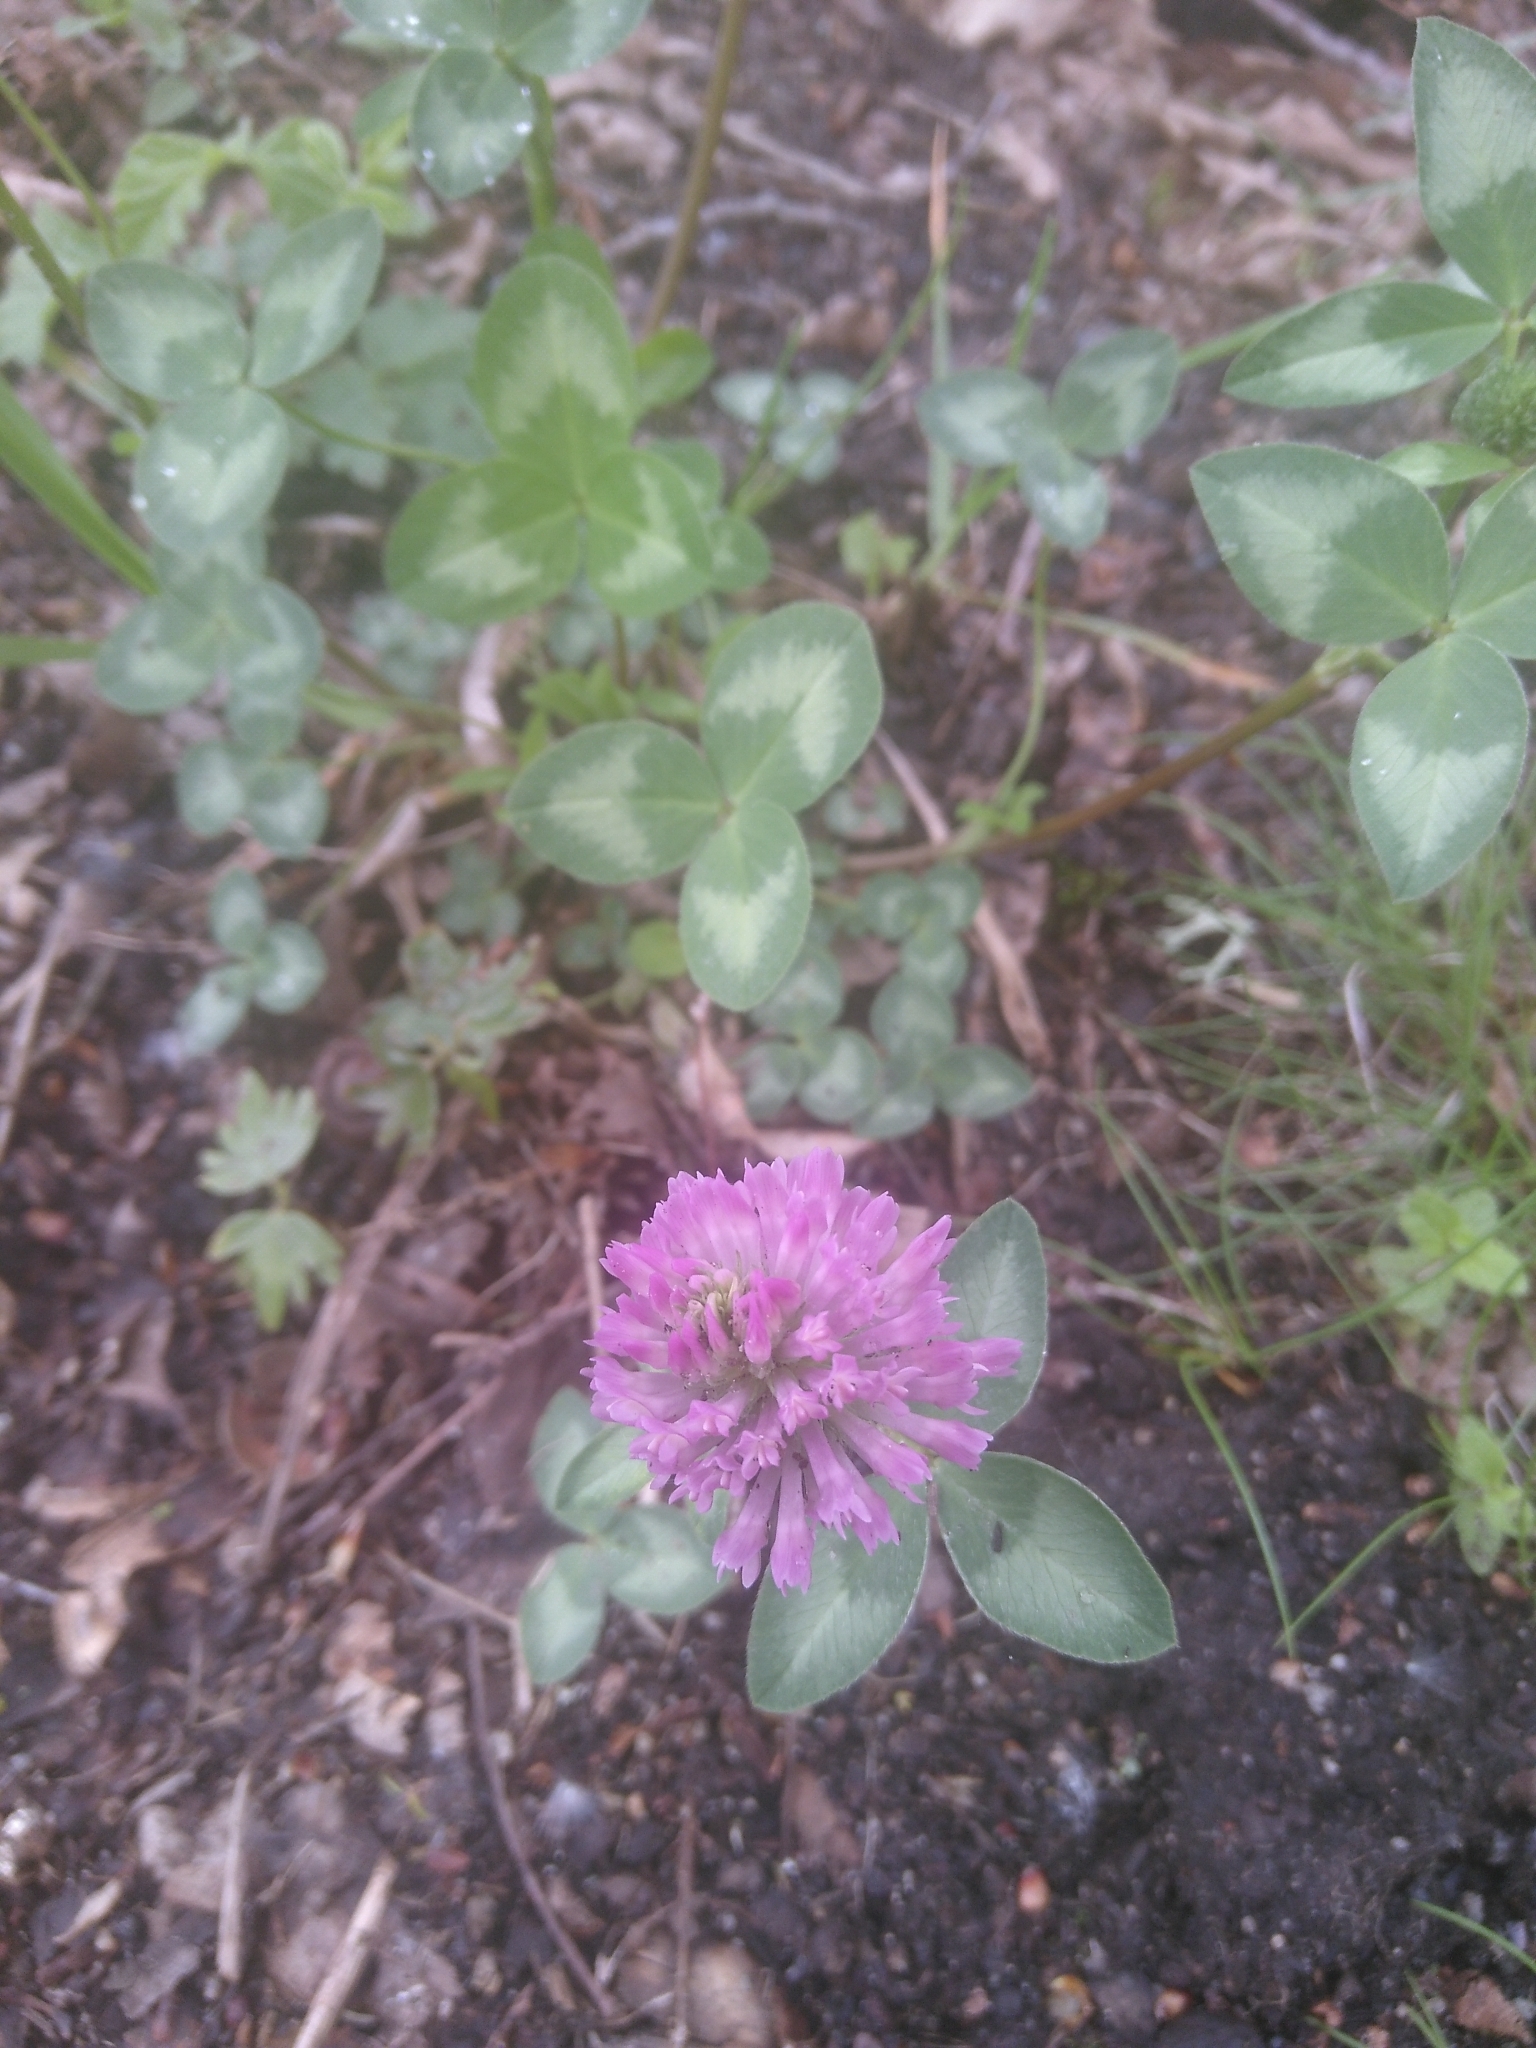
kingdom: Plantae
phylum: Tracheophyta
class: Magnoliopsida
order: Fabales
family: Fabaceae
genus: Trifolium
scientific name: Trifolium pratense
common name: Red clover
